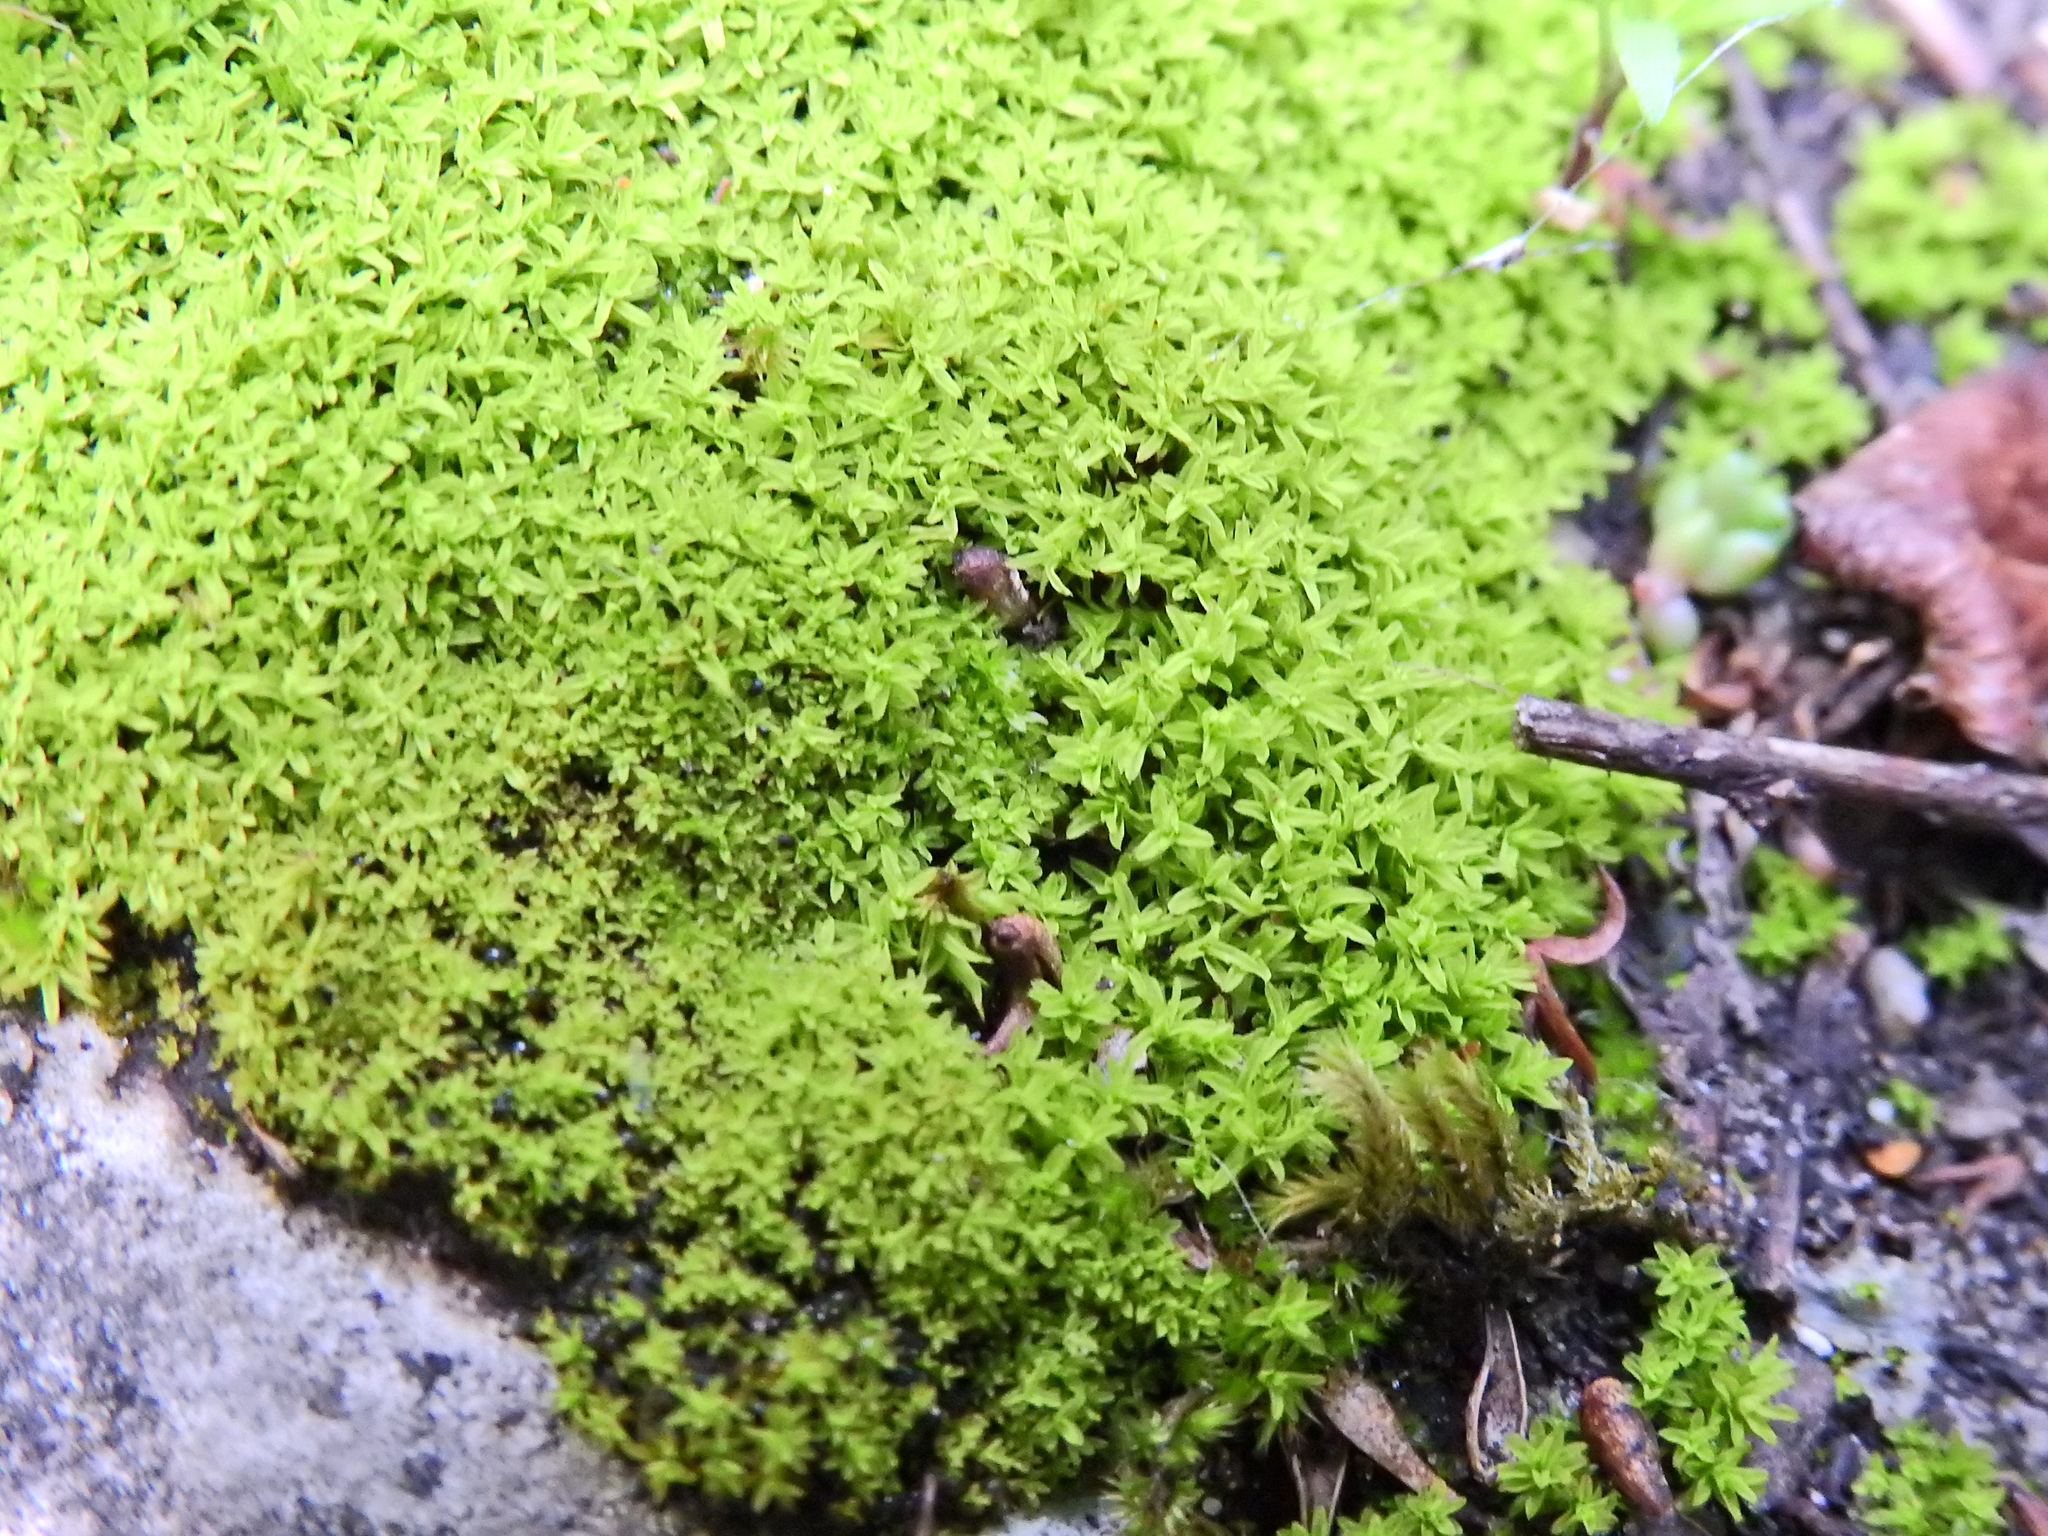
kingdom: Plantae
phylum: Bryophyta
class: Bryopsida
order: Pottiales
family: Pottiaceae
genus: Streblotrichum
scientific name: Streblotrichum convolutum
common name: Lesser bird's-claw beard-moss
